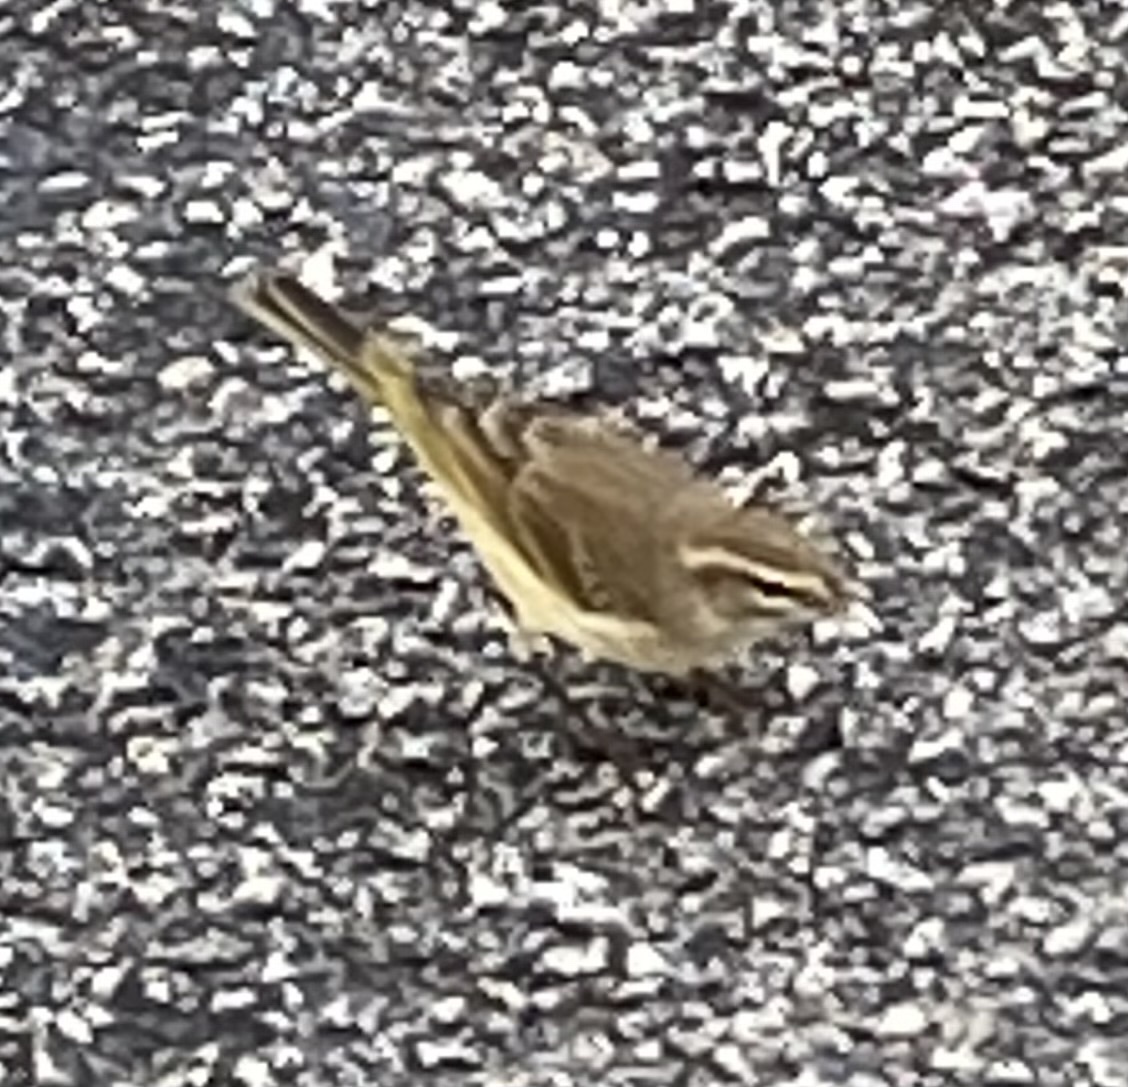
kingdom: Animalia
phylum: Chordata
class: Aves
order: Passeriformes
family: Parulidae
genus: Setophaga
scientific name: Setophaga palmarum
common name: Palm warbler
